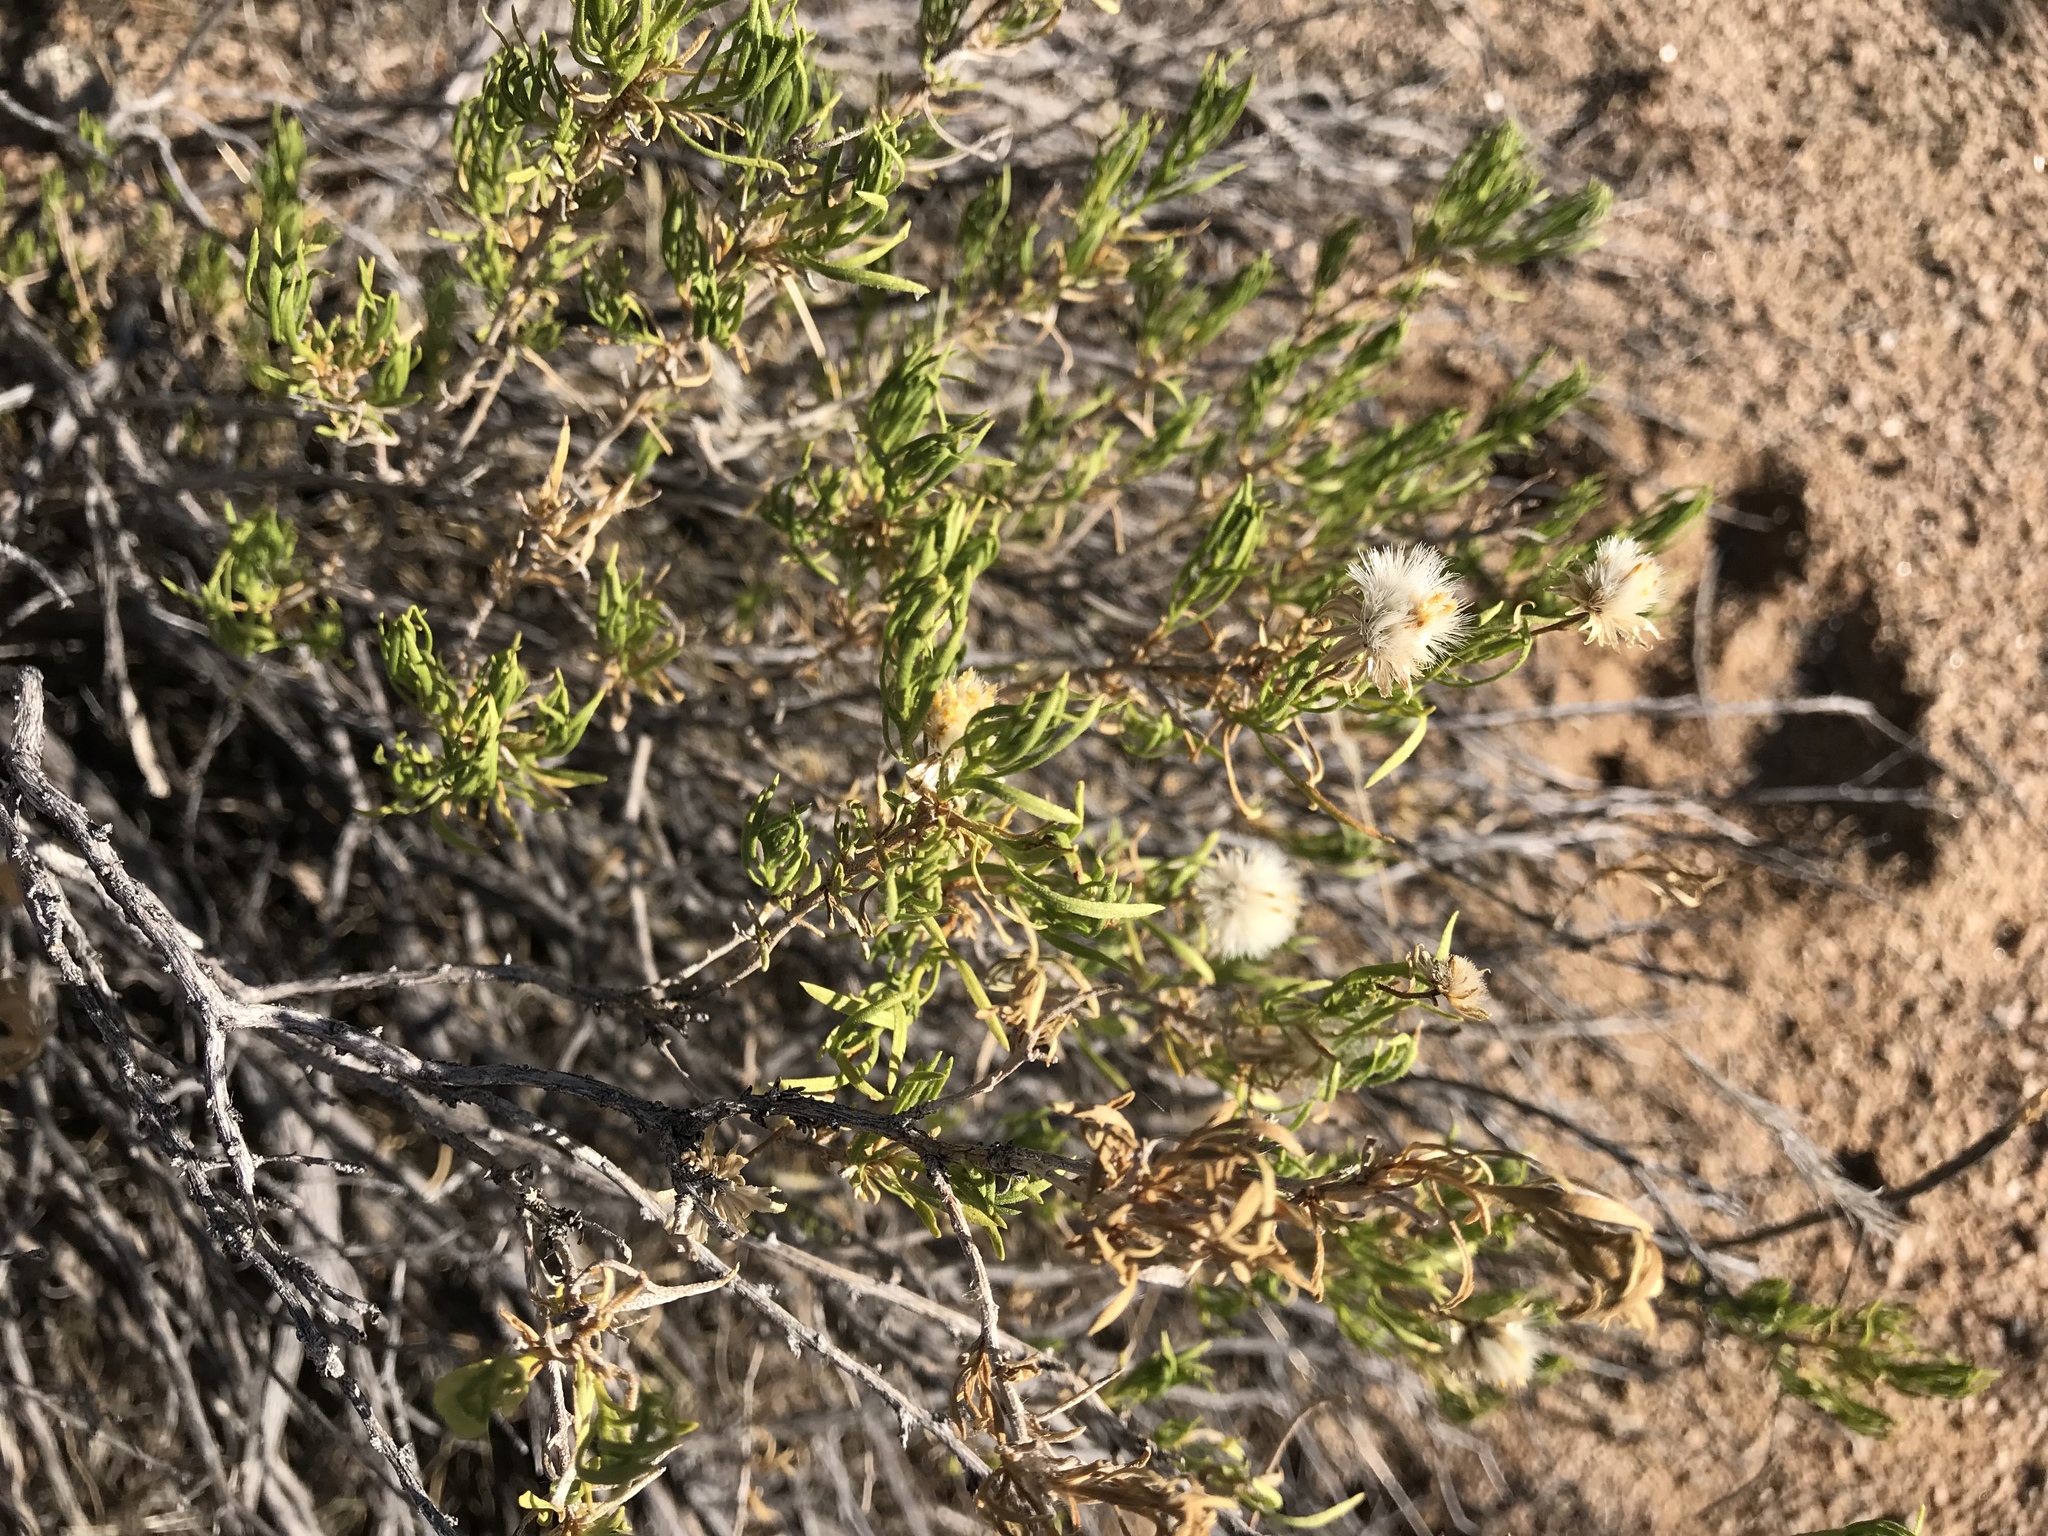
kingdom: Plantae
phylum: Tracheophyta
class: Magnoliopsida
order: Asterales
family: Asteraceae
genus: Ericameria
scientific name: Ericameria linearifolia
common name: Interior goldenbush
